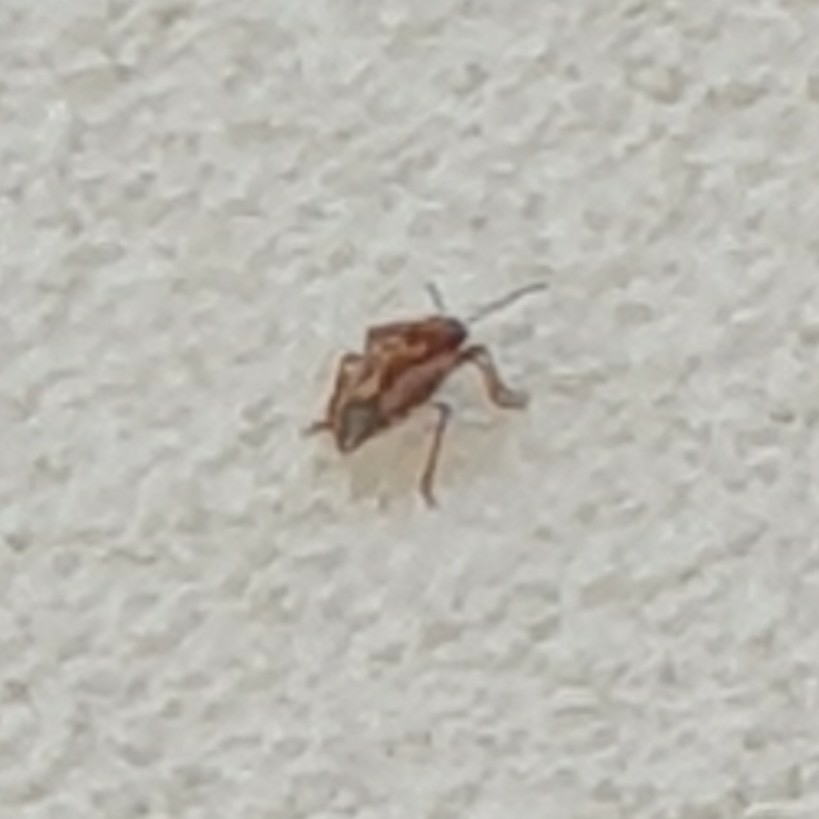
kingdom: Animalia
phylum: Arthropoda
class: Insecta
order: Hemiptera
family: Pentatomidae
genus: Carpocoris
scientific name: Carpocoris mediterraneus
